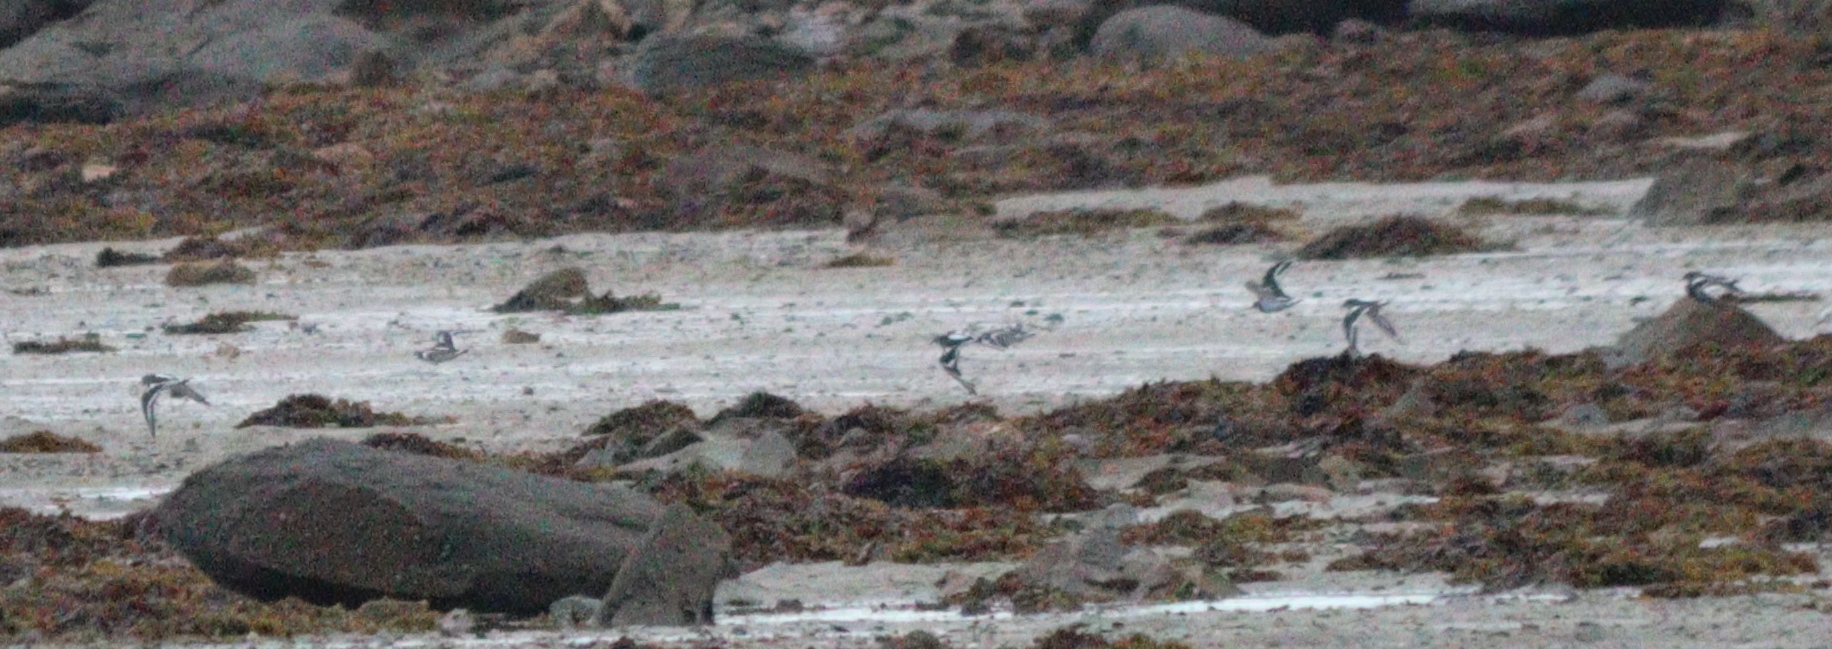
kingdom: Animalia
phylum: Chordata
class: Aves
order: Charadriiformes
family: Scolopacidae
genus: Arenaria
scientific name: Arenaria interpres
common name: Ruddy turnstone
